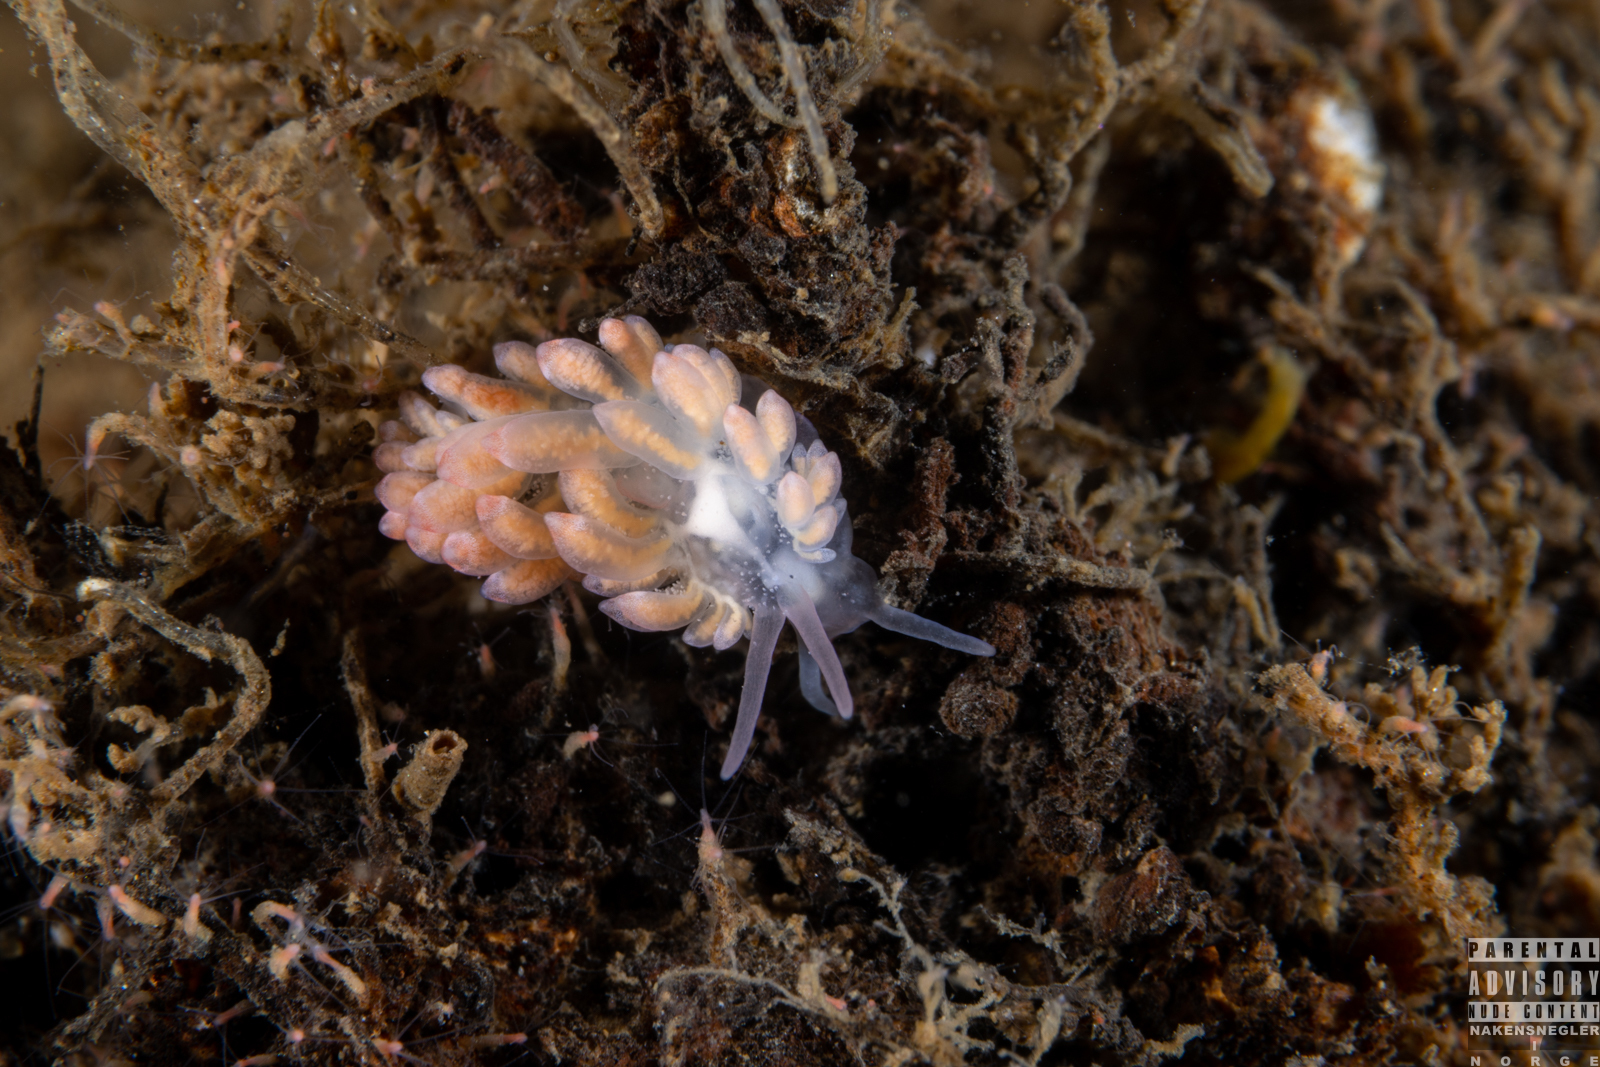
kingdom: Animalia
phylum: Mollusca
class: Gastropoda
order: Nudibranchia
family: Trinchesiidae
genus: Catriona
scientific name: Catriona aurantia
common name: Corange-tip cuthona
